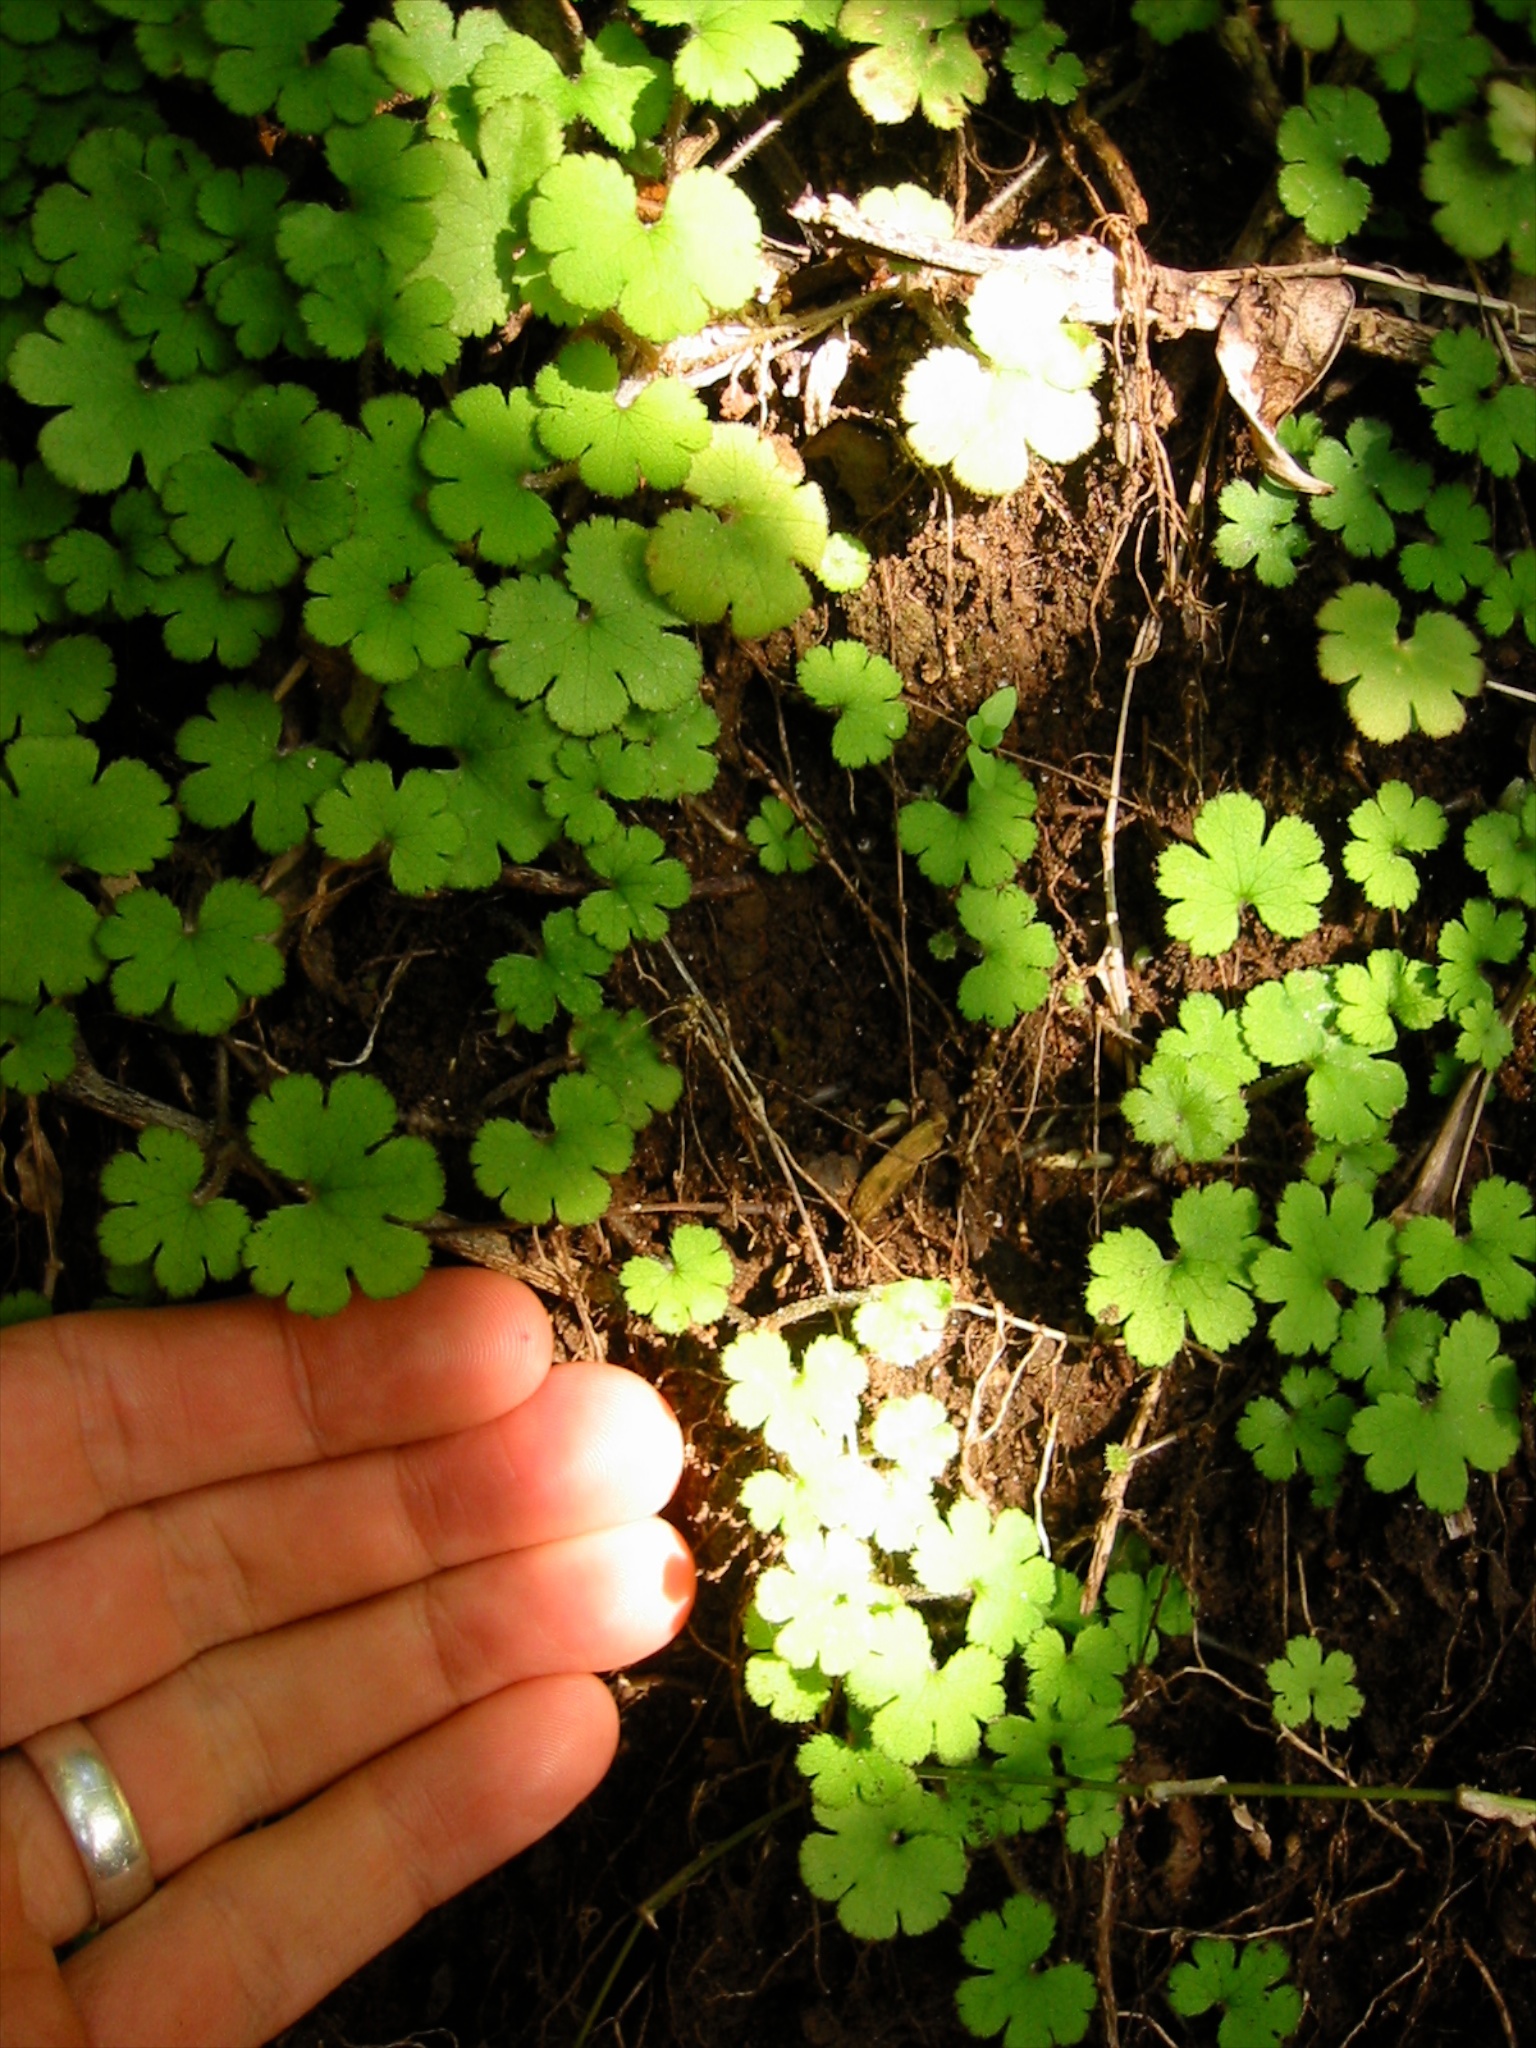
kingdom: Plantae
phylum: Tracheophyta
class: Magnoliopsida
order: Apiales
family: Araliaceae
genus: Hydrocotyle
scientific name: Hydrocotyle elongata
